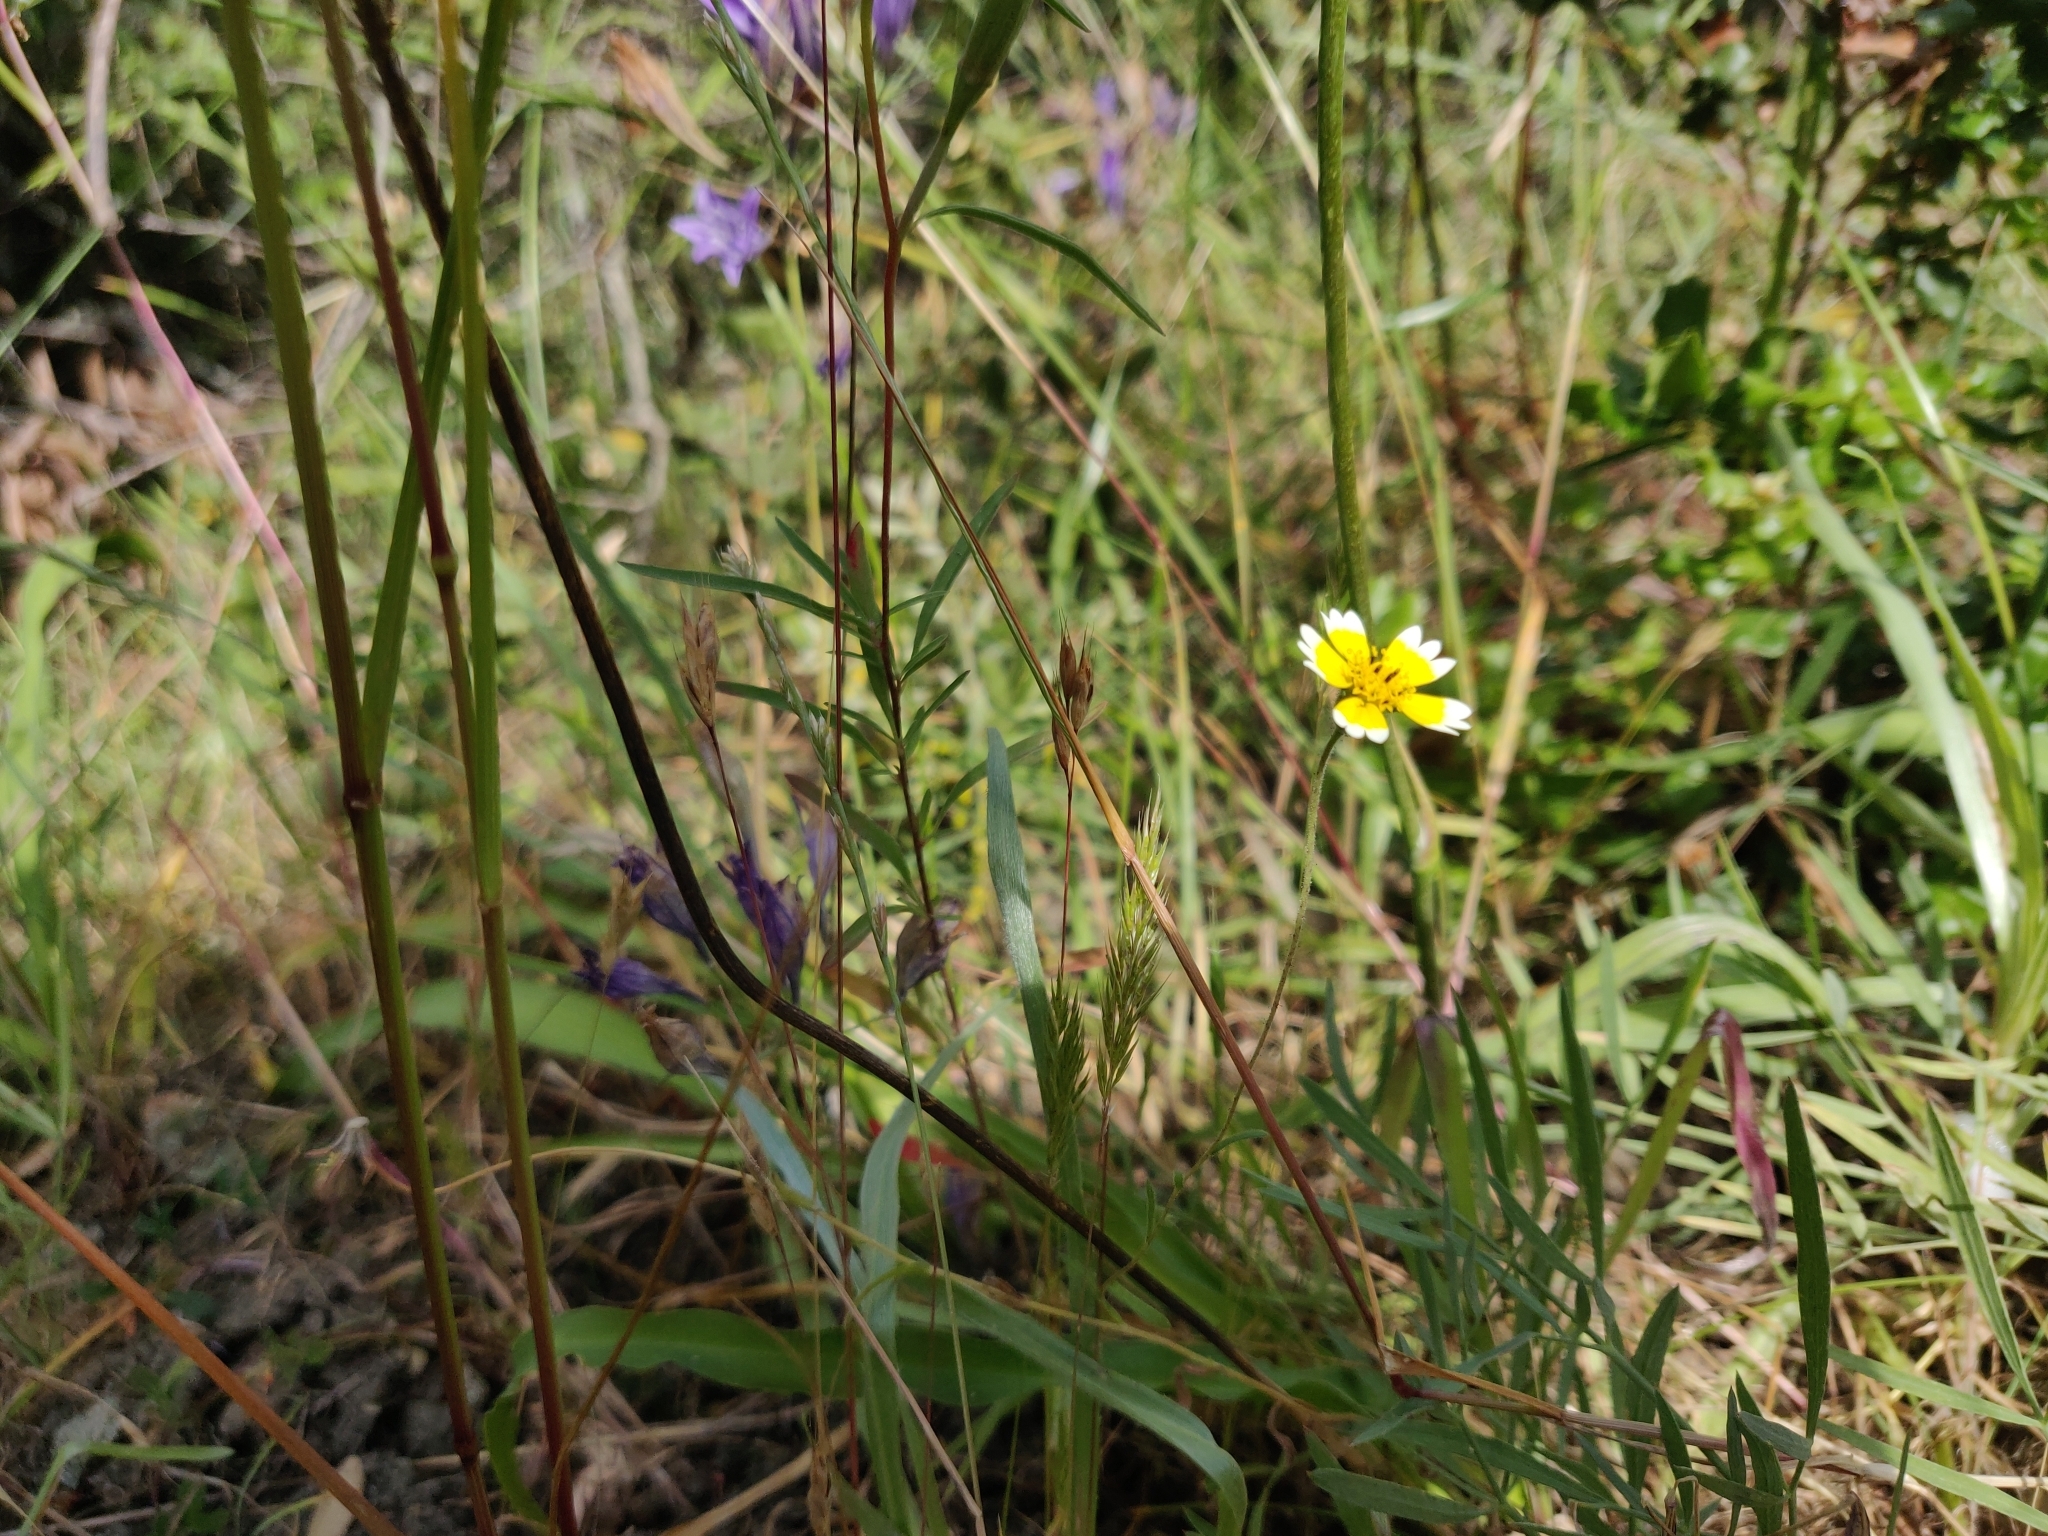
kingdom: Plantae
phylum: Tracheophyta
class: Magnoliopsida
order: Asterales
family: Asteraceae
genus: Layia
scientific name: Layia platyglossa
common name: Tidy-tips
